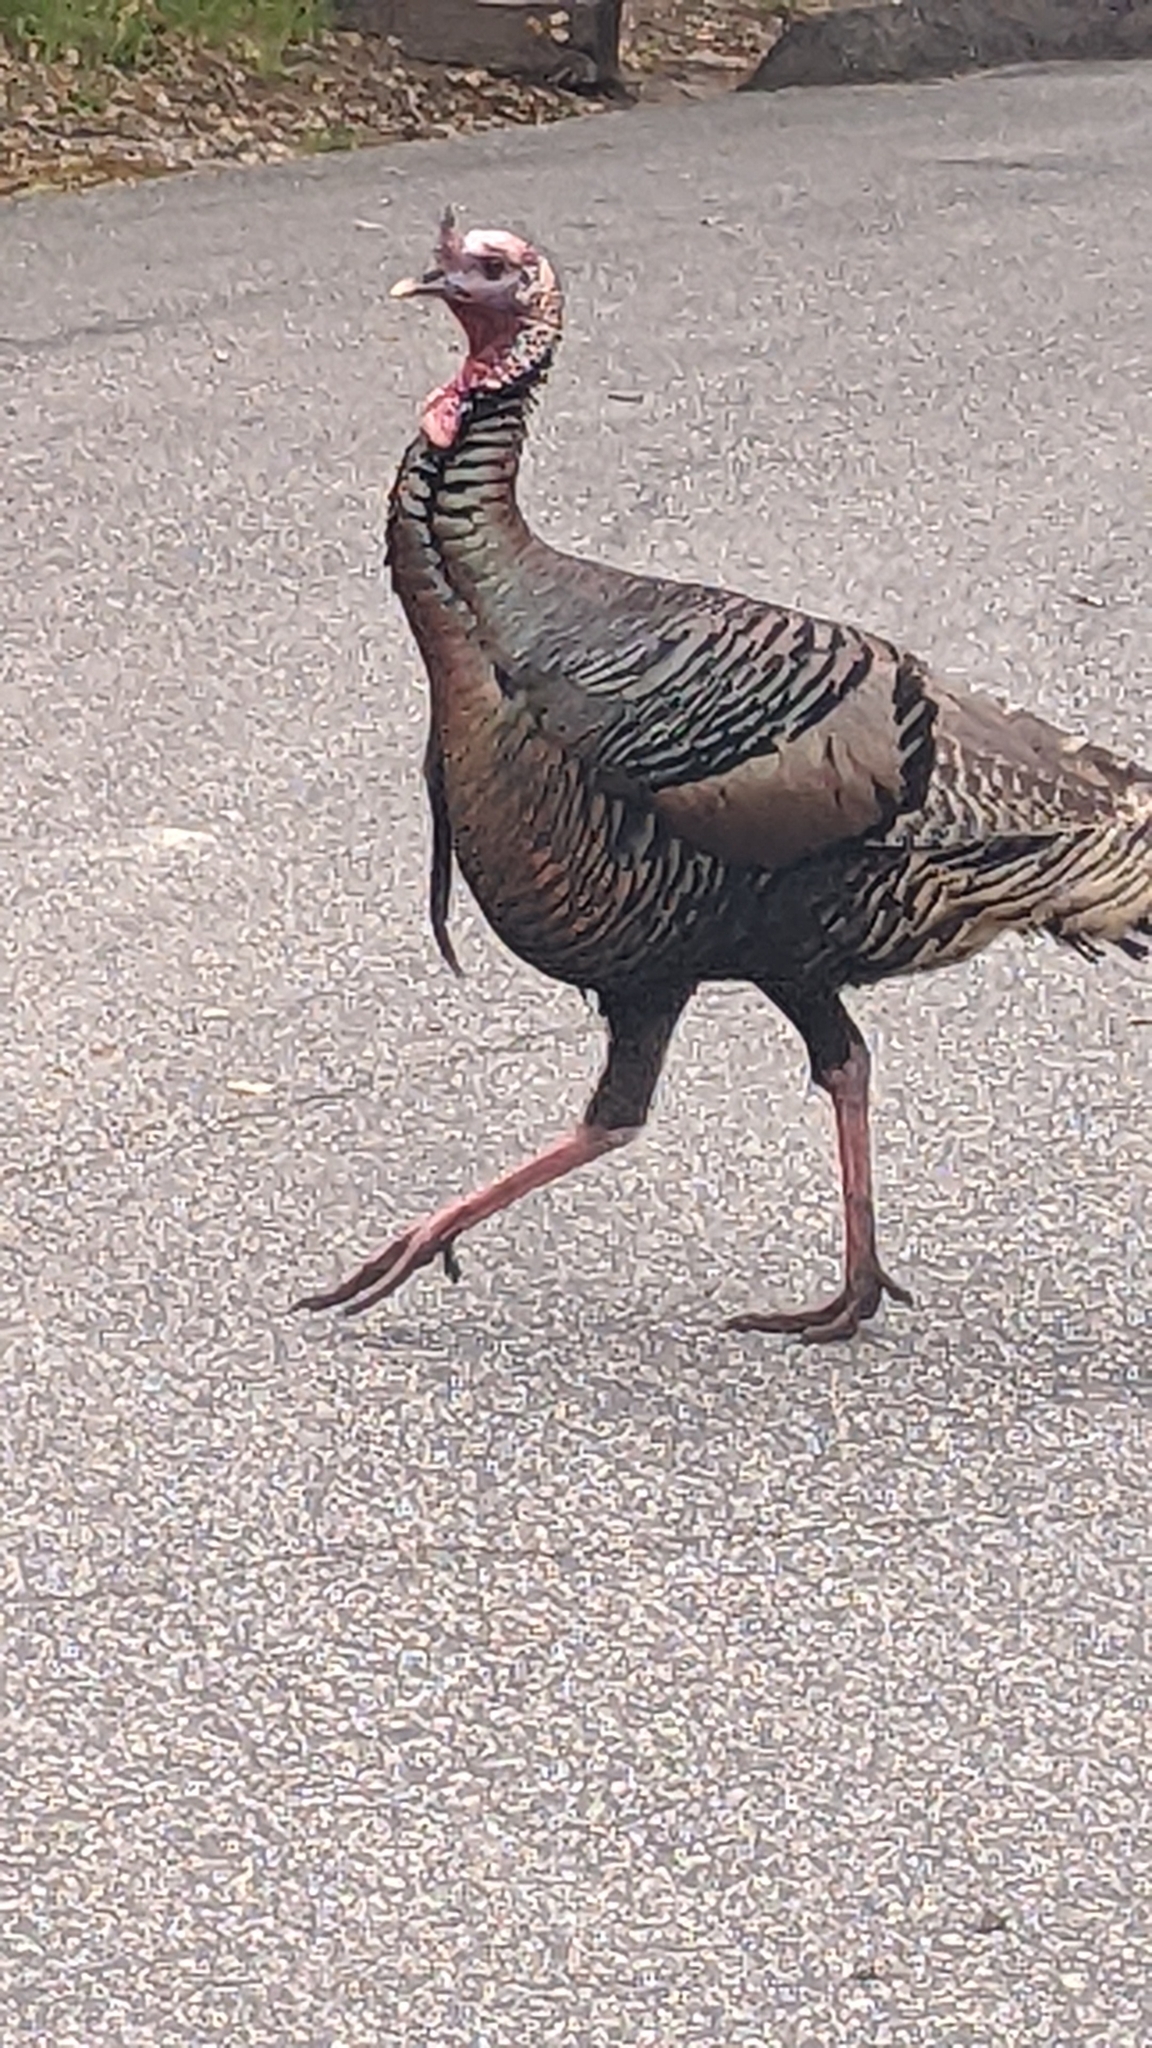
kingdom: Animalia
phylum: Chordata
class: Aves
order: Galliformes
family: Phasianidae
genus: Meleagris
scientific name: Meleagris gallopavo
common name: Wild turkey
